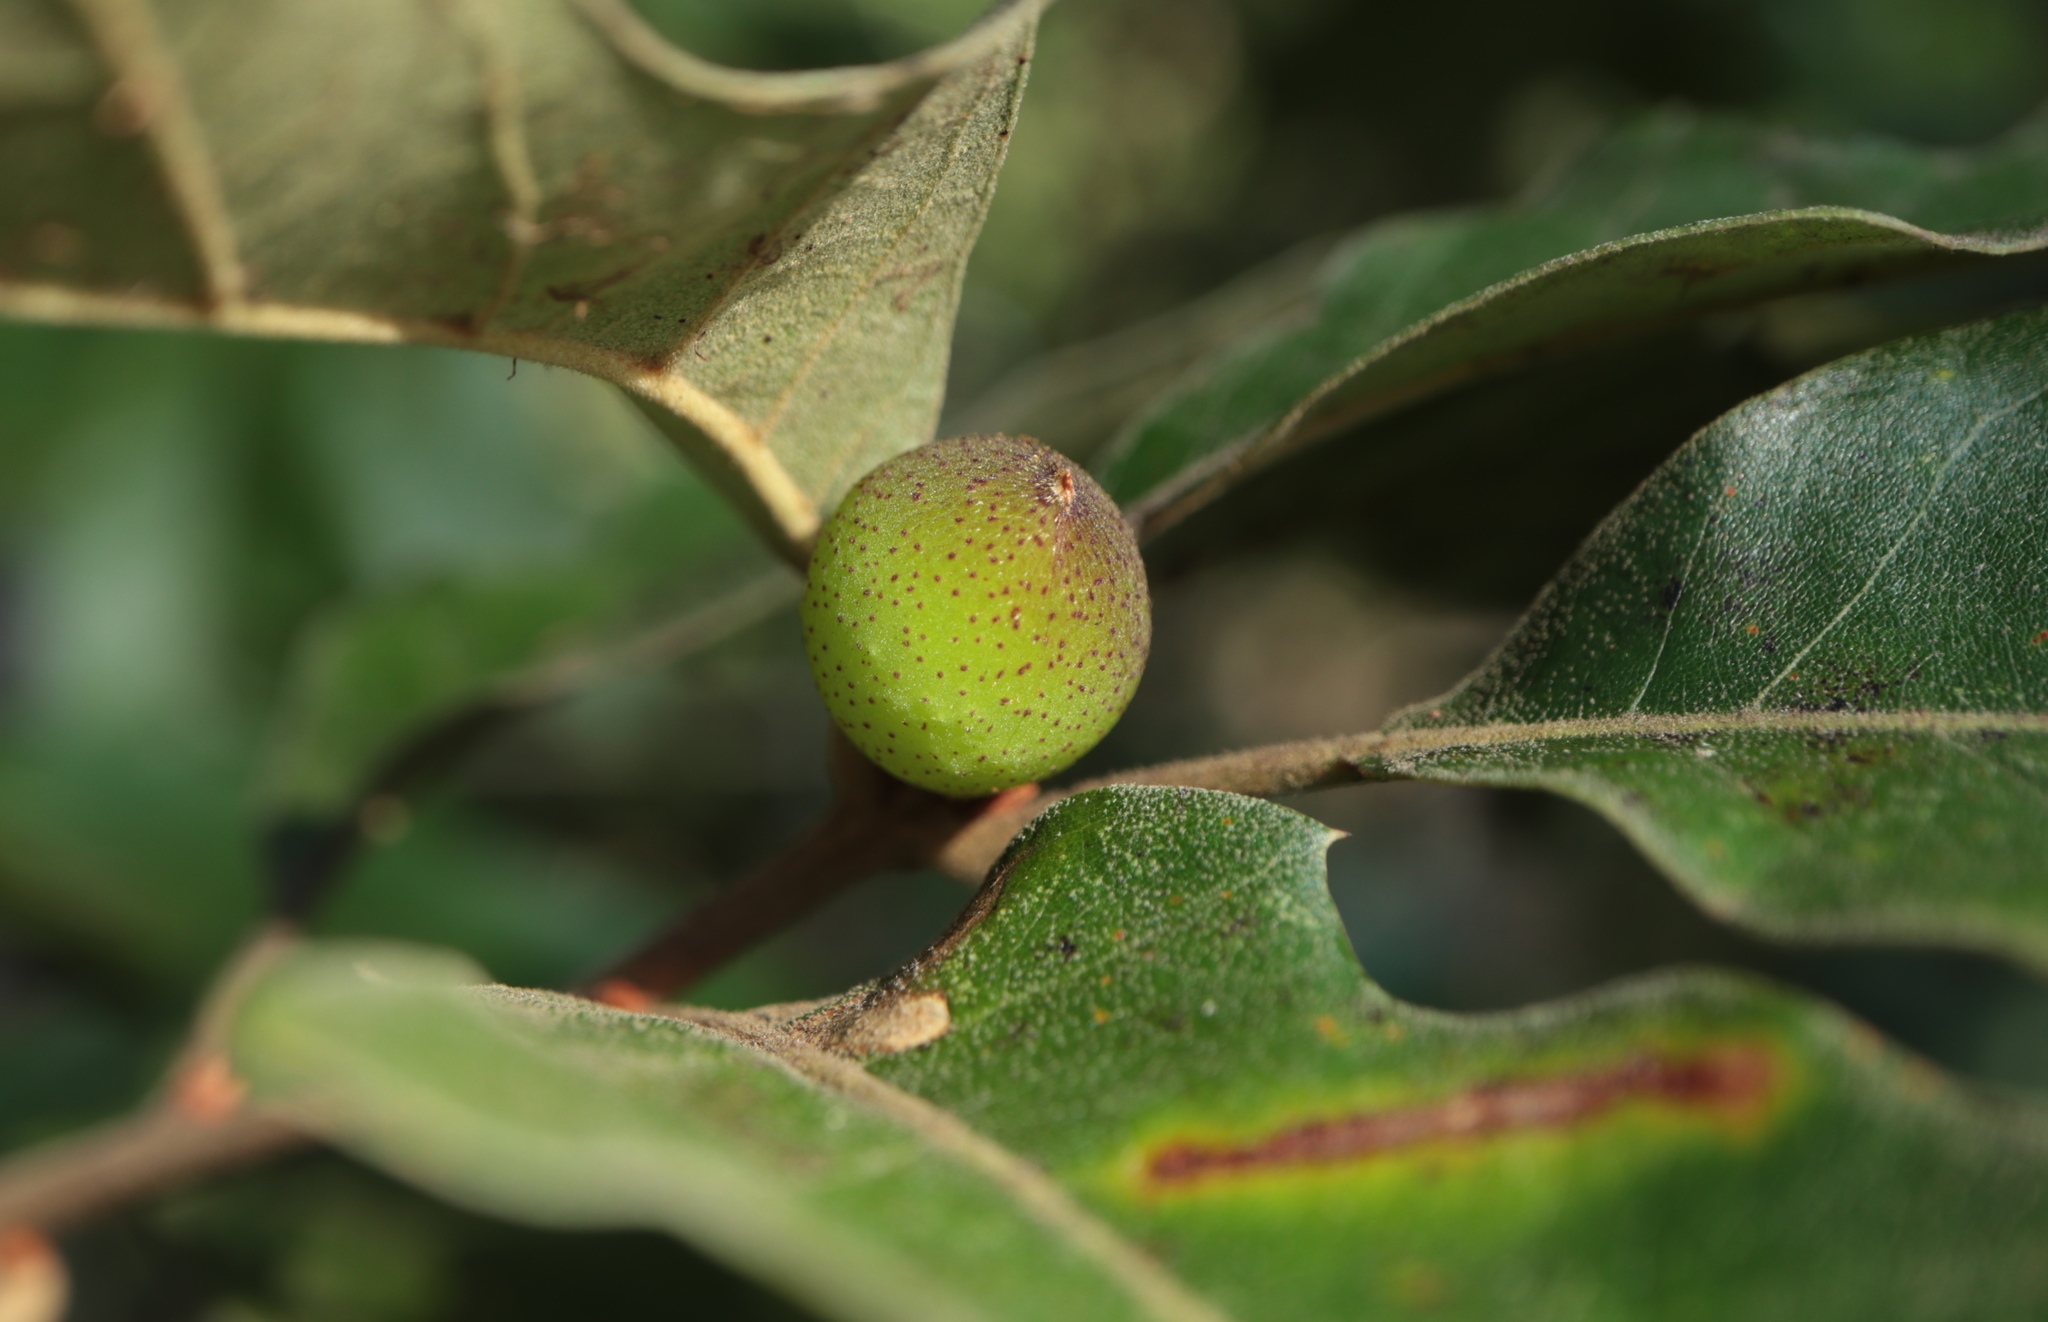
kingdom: Animalia
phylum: Arthropoda
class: Insecta
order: Hymenoptera
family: Cynipidae
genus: Amphibolips
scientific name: Amphibolips
